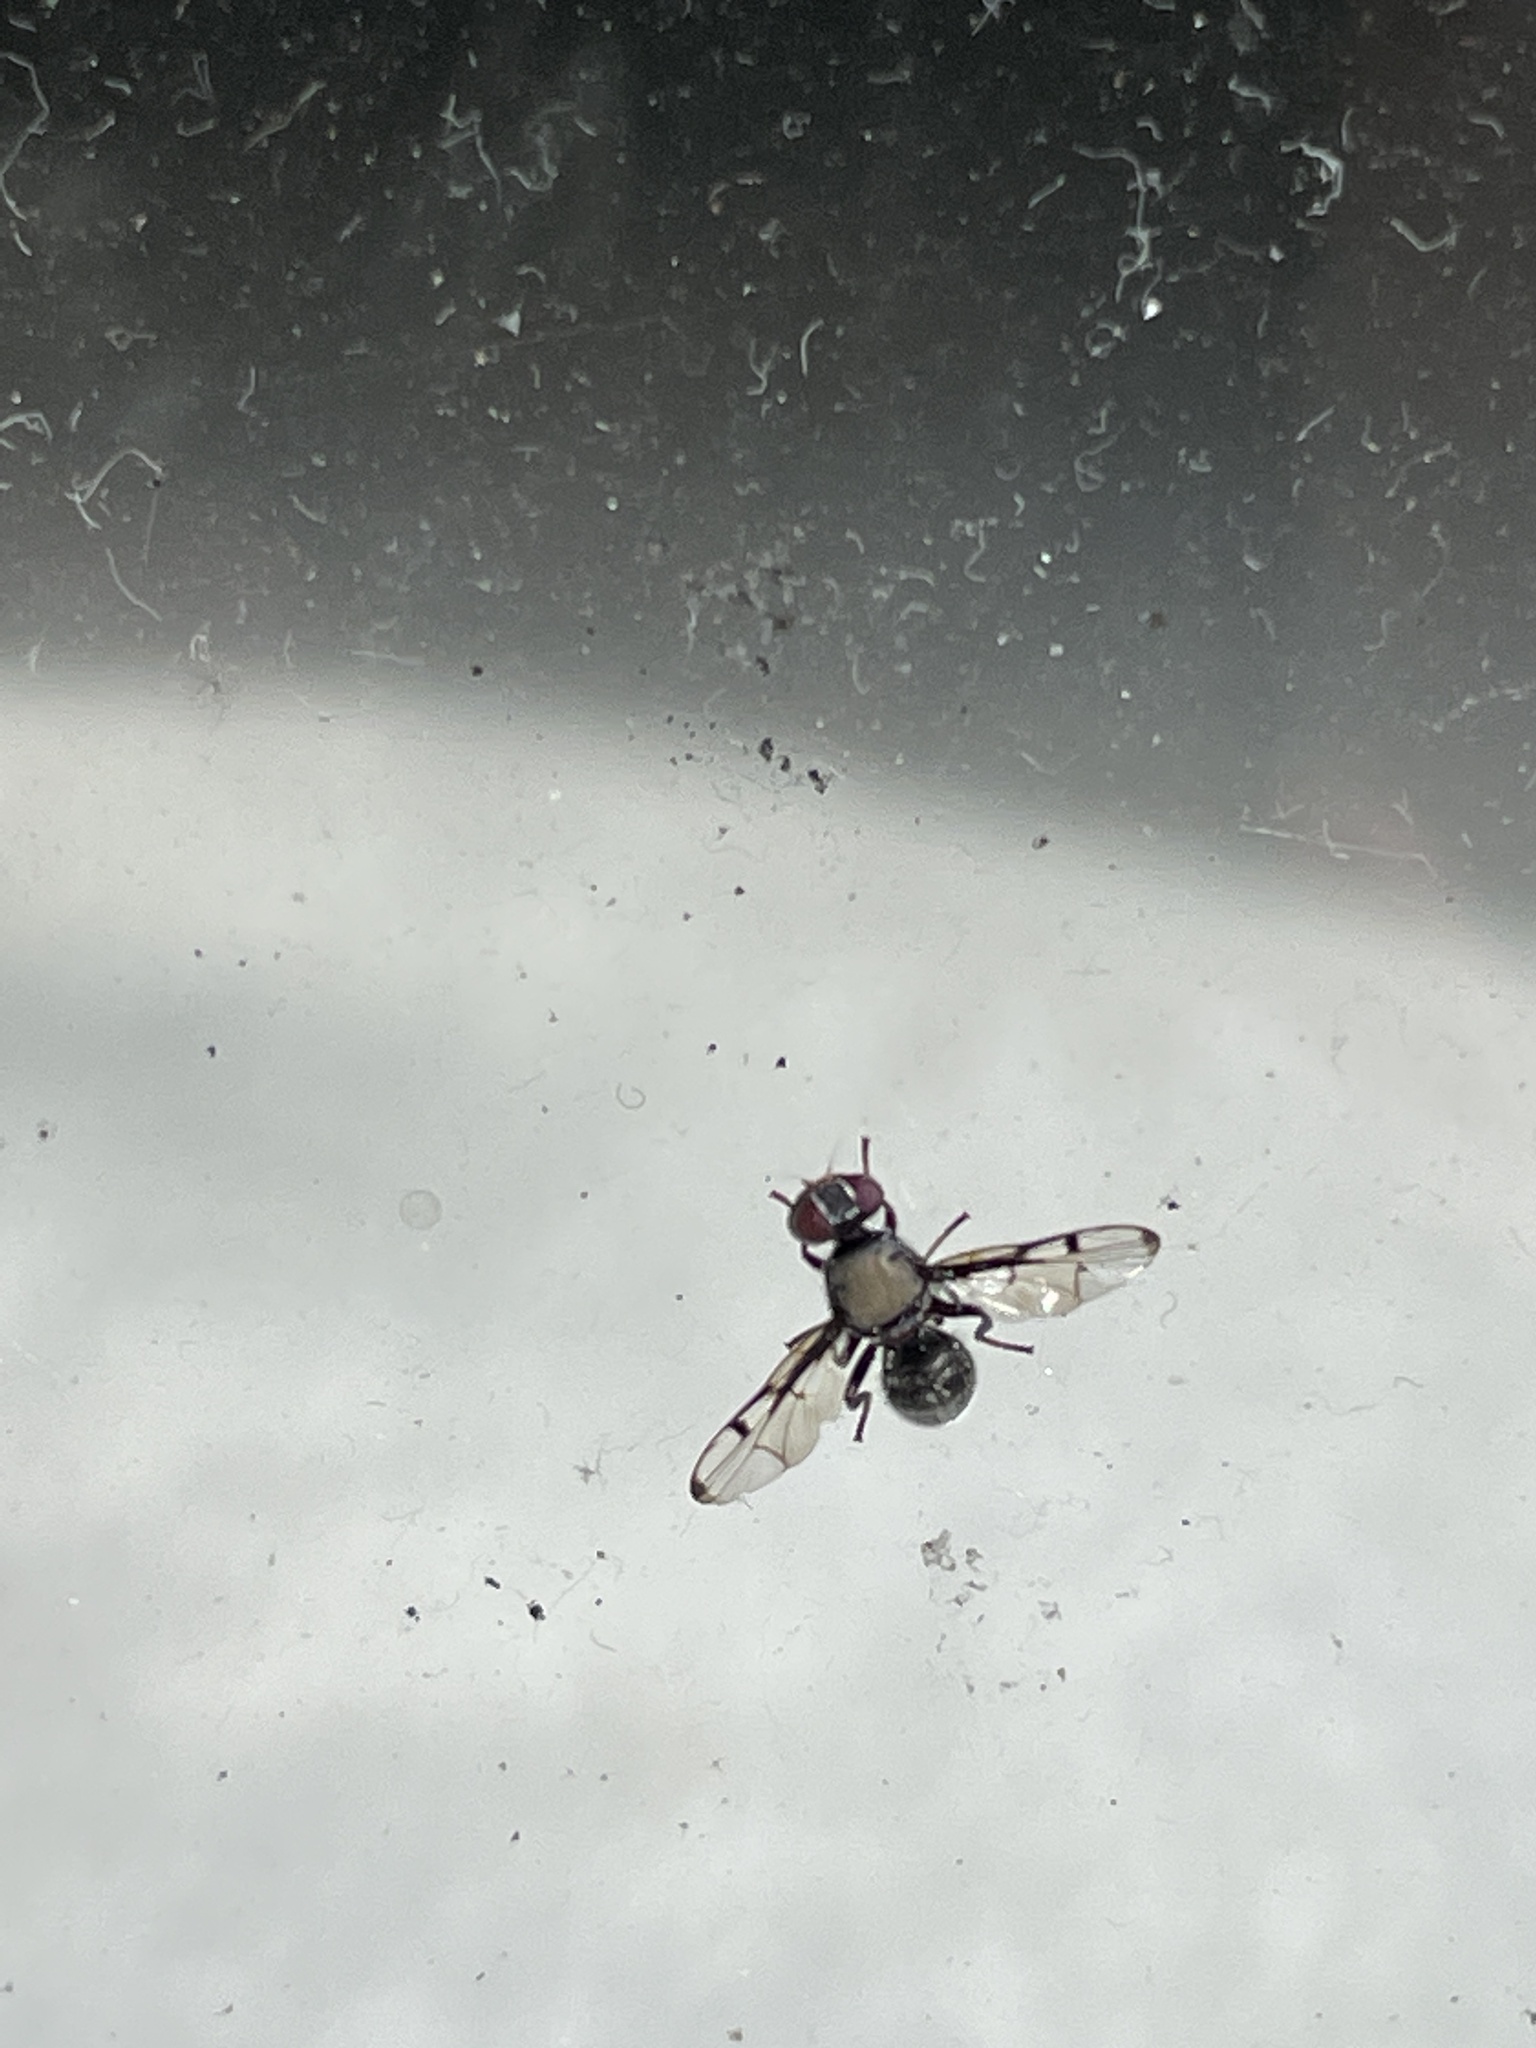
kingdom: Animalia
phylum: Arthropoda
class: Insecta
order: Diptera
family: Platystomatidae
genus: Pogonortalis
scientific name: Pogonortalis doclea
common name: Boatman fly
